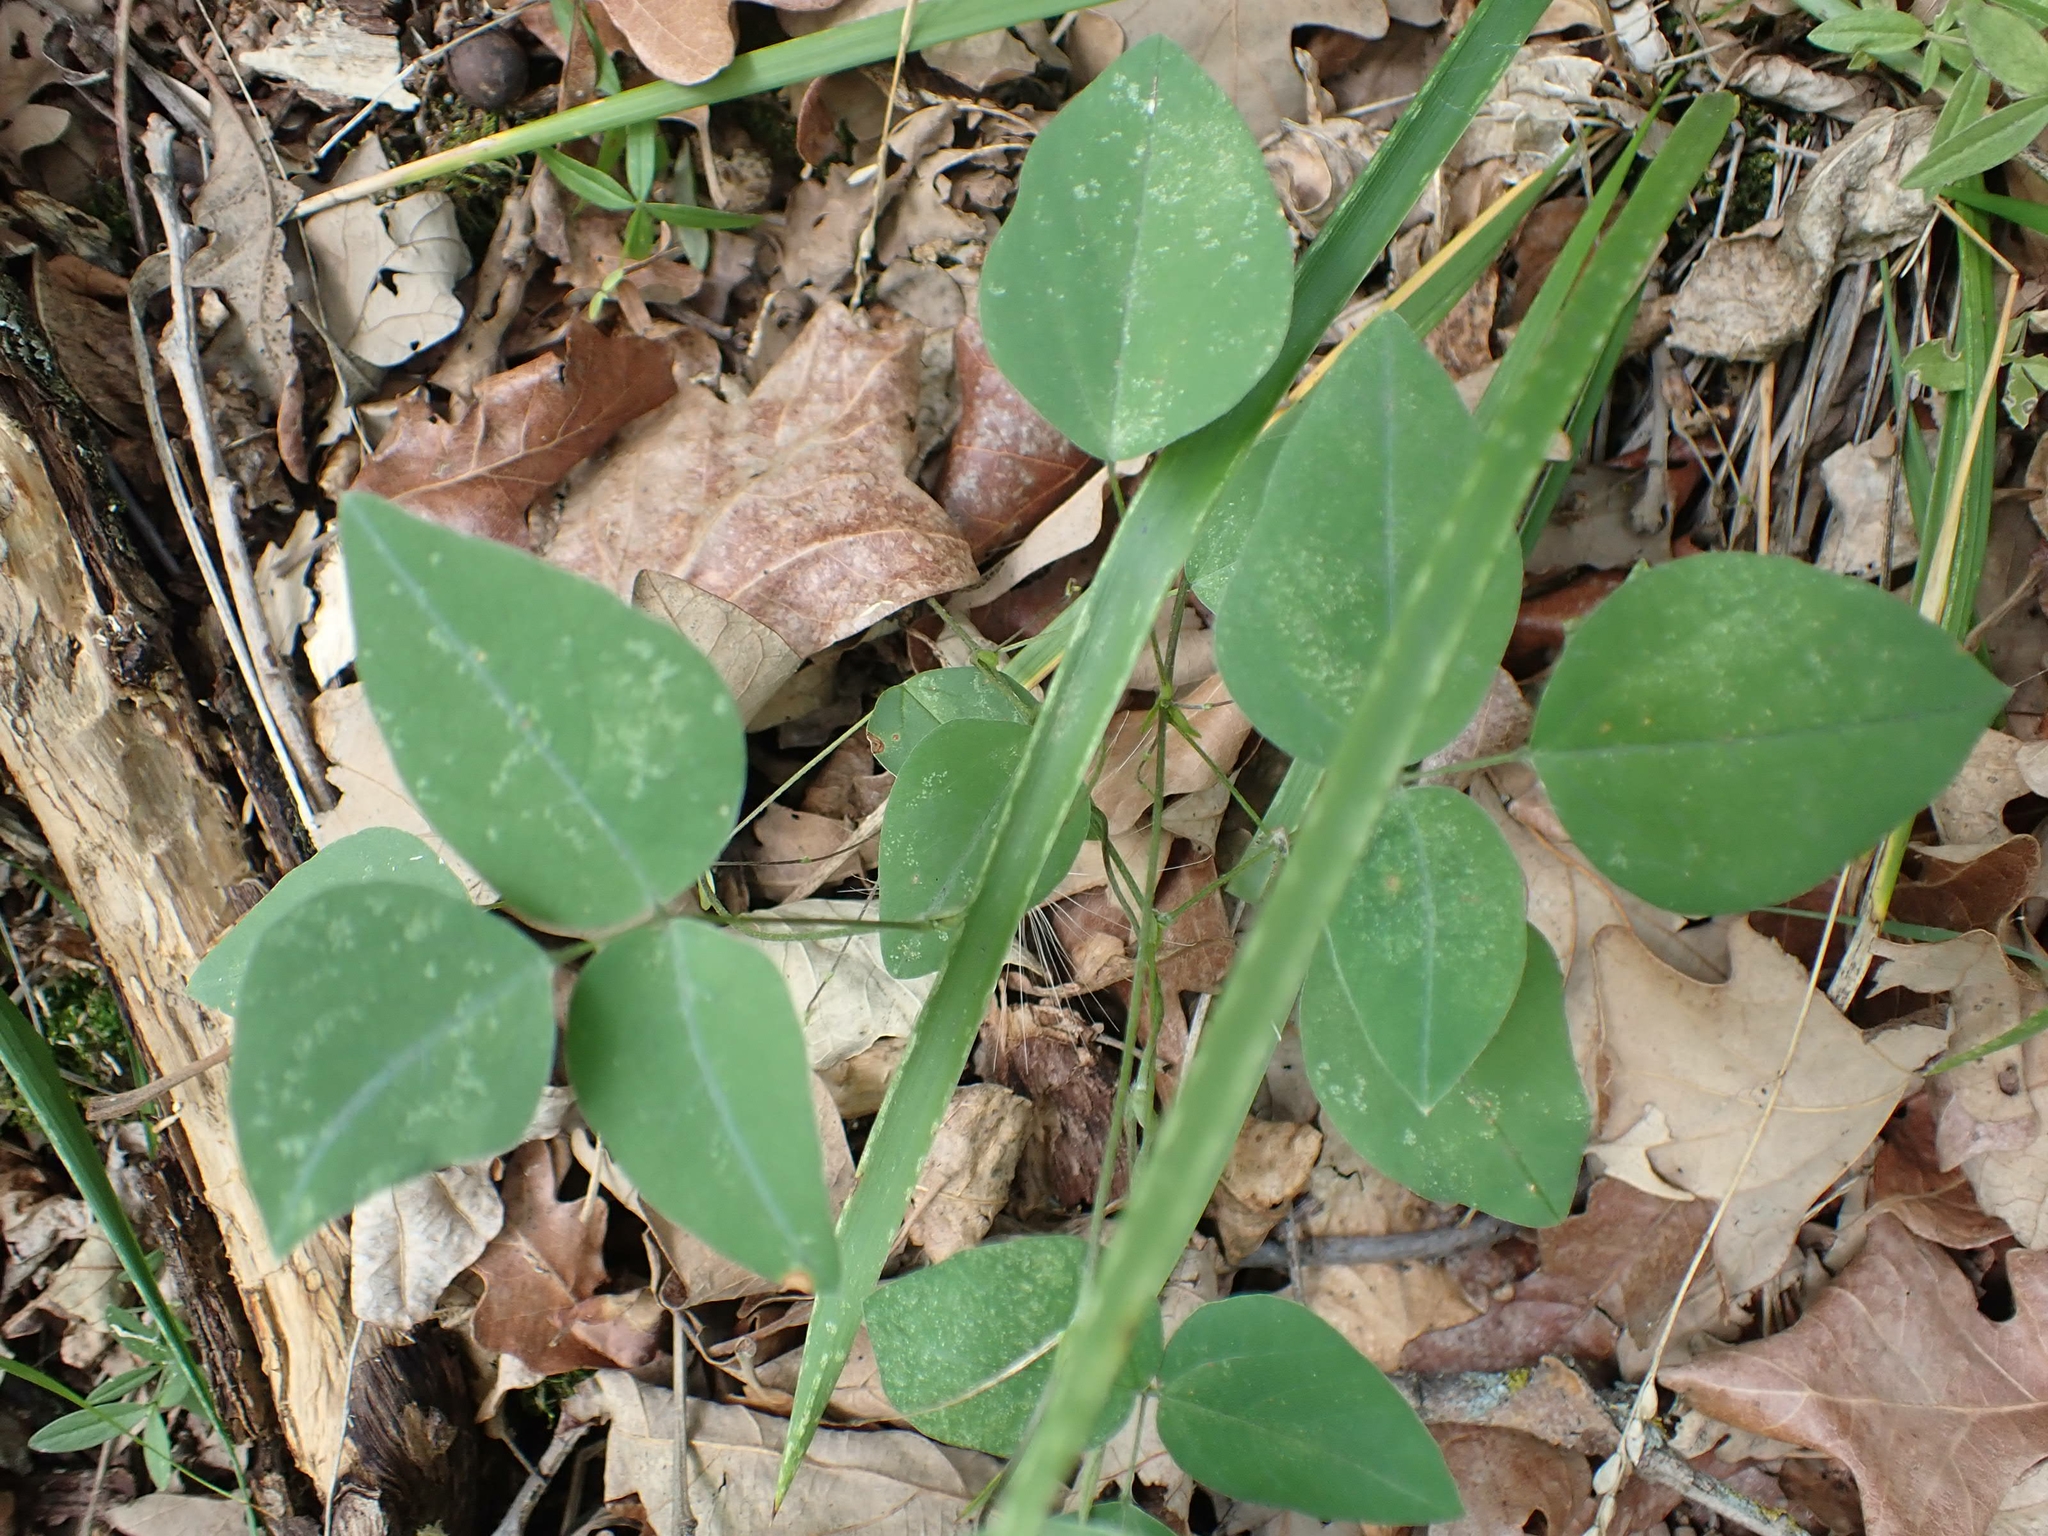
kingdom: Plantae
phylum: Tracheophyta
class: Magnoliopsida
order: Fabales
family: Fabaceae
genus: Amphicarpaea
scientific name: Amphicarpaea bracteata
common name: American hog peanut
